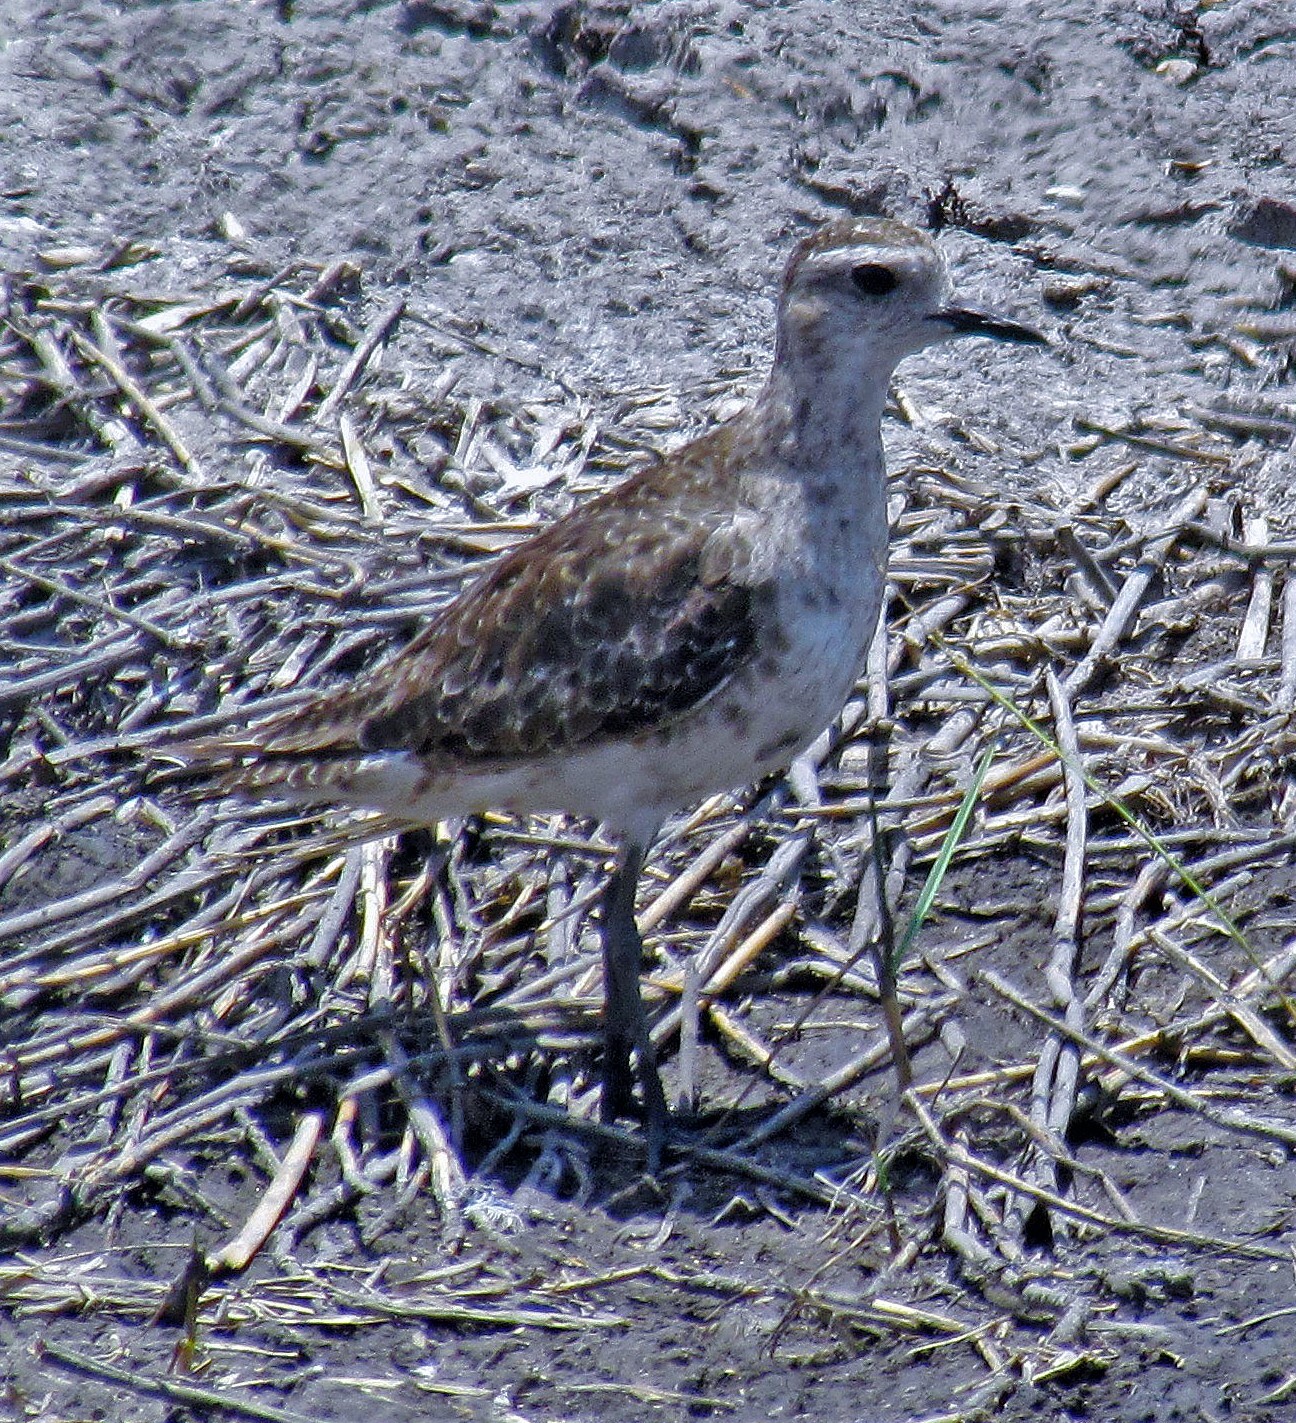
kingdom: Animalia
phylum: Chordata
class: Aves
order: Charadriiformes
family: Charadriidae
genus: Pluvialis
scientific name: Pluvialis dominica
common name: American golden plover
